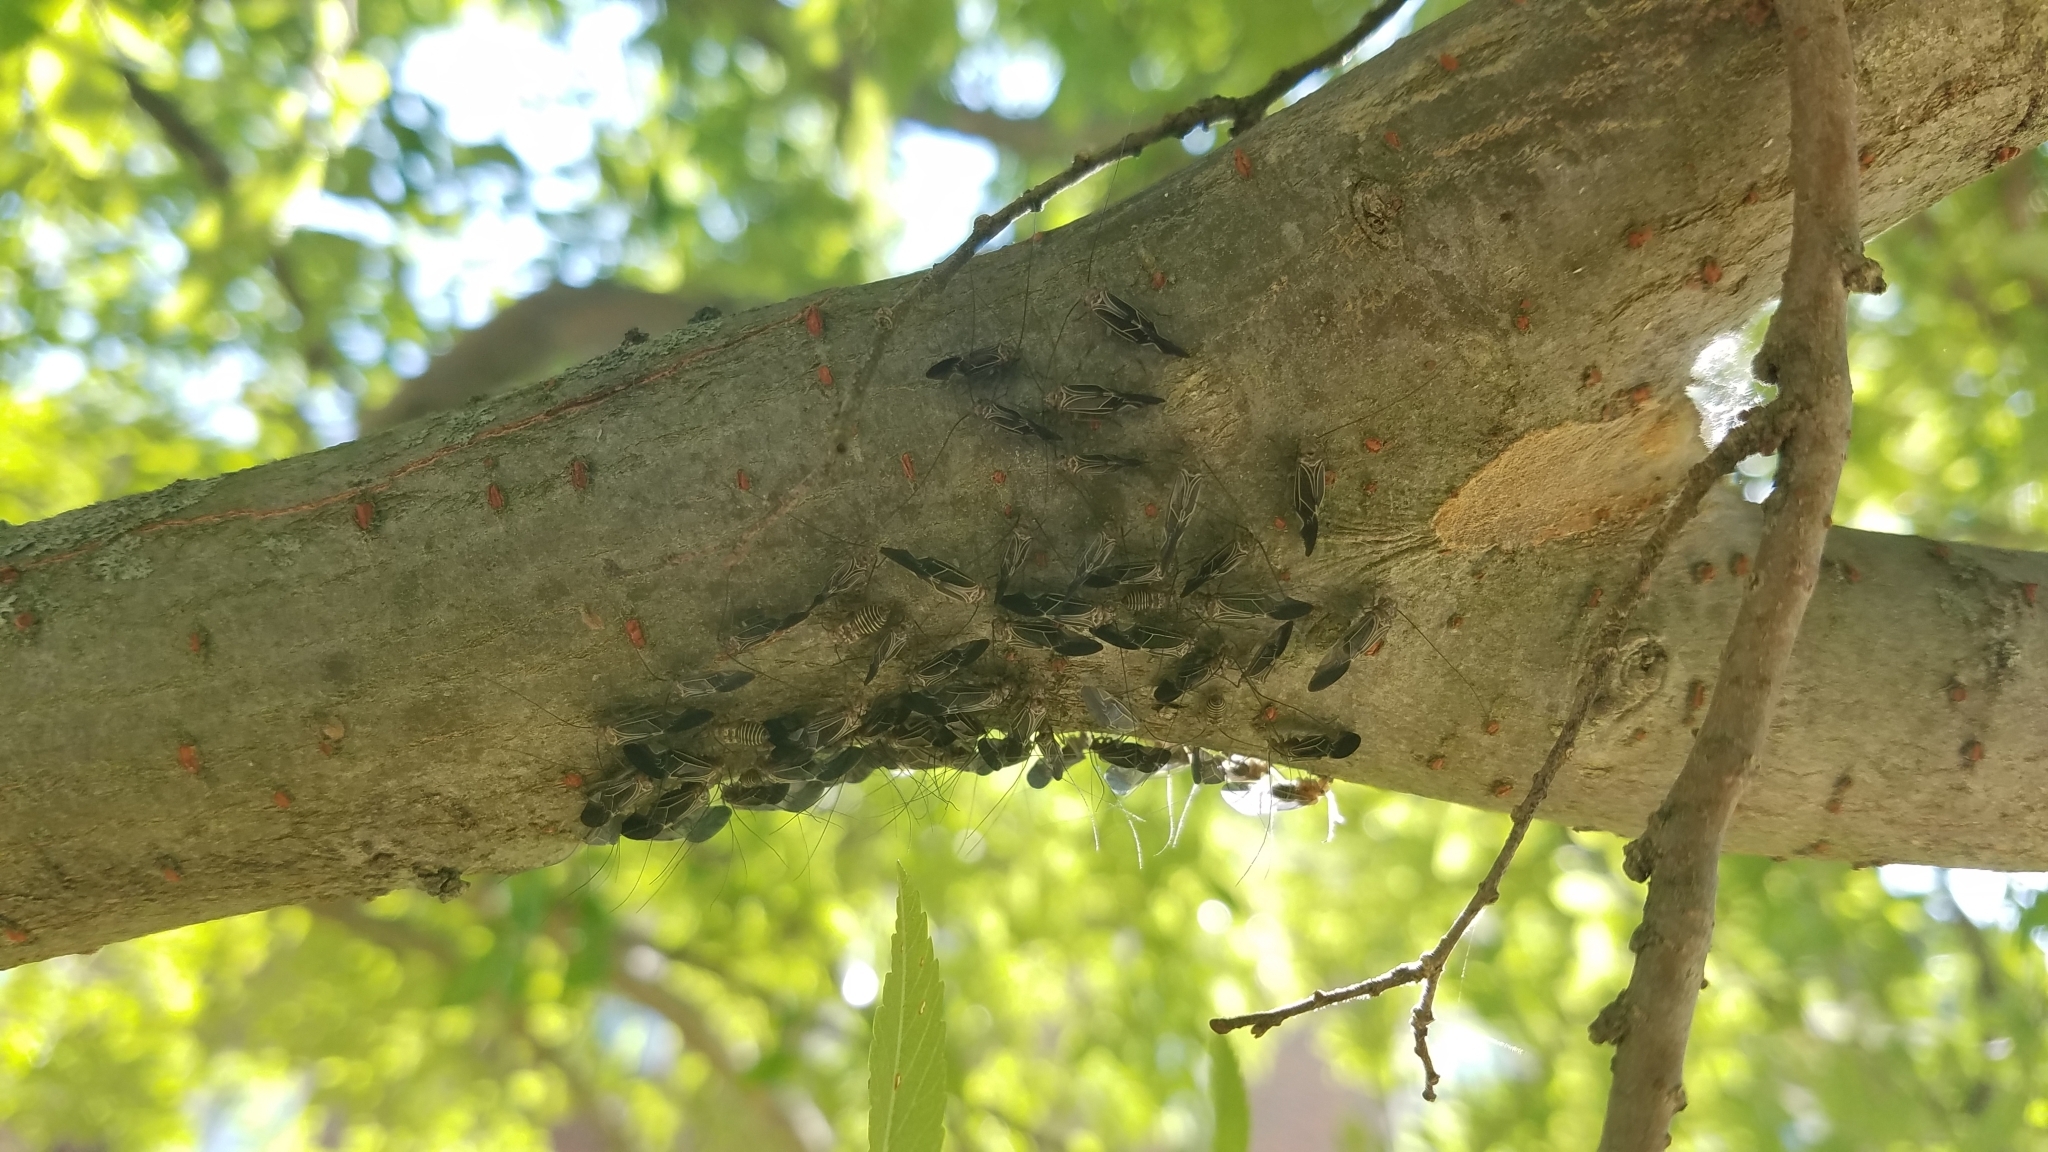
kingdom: Animalia
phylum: Arthropoda
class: Insecta
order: Psocodea
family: Psocidae
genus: Cerastipsocus
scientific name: Cerastipsocus venosus
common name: Tree cattle
